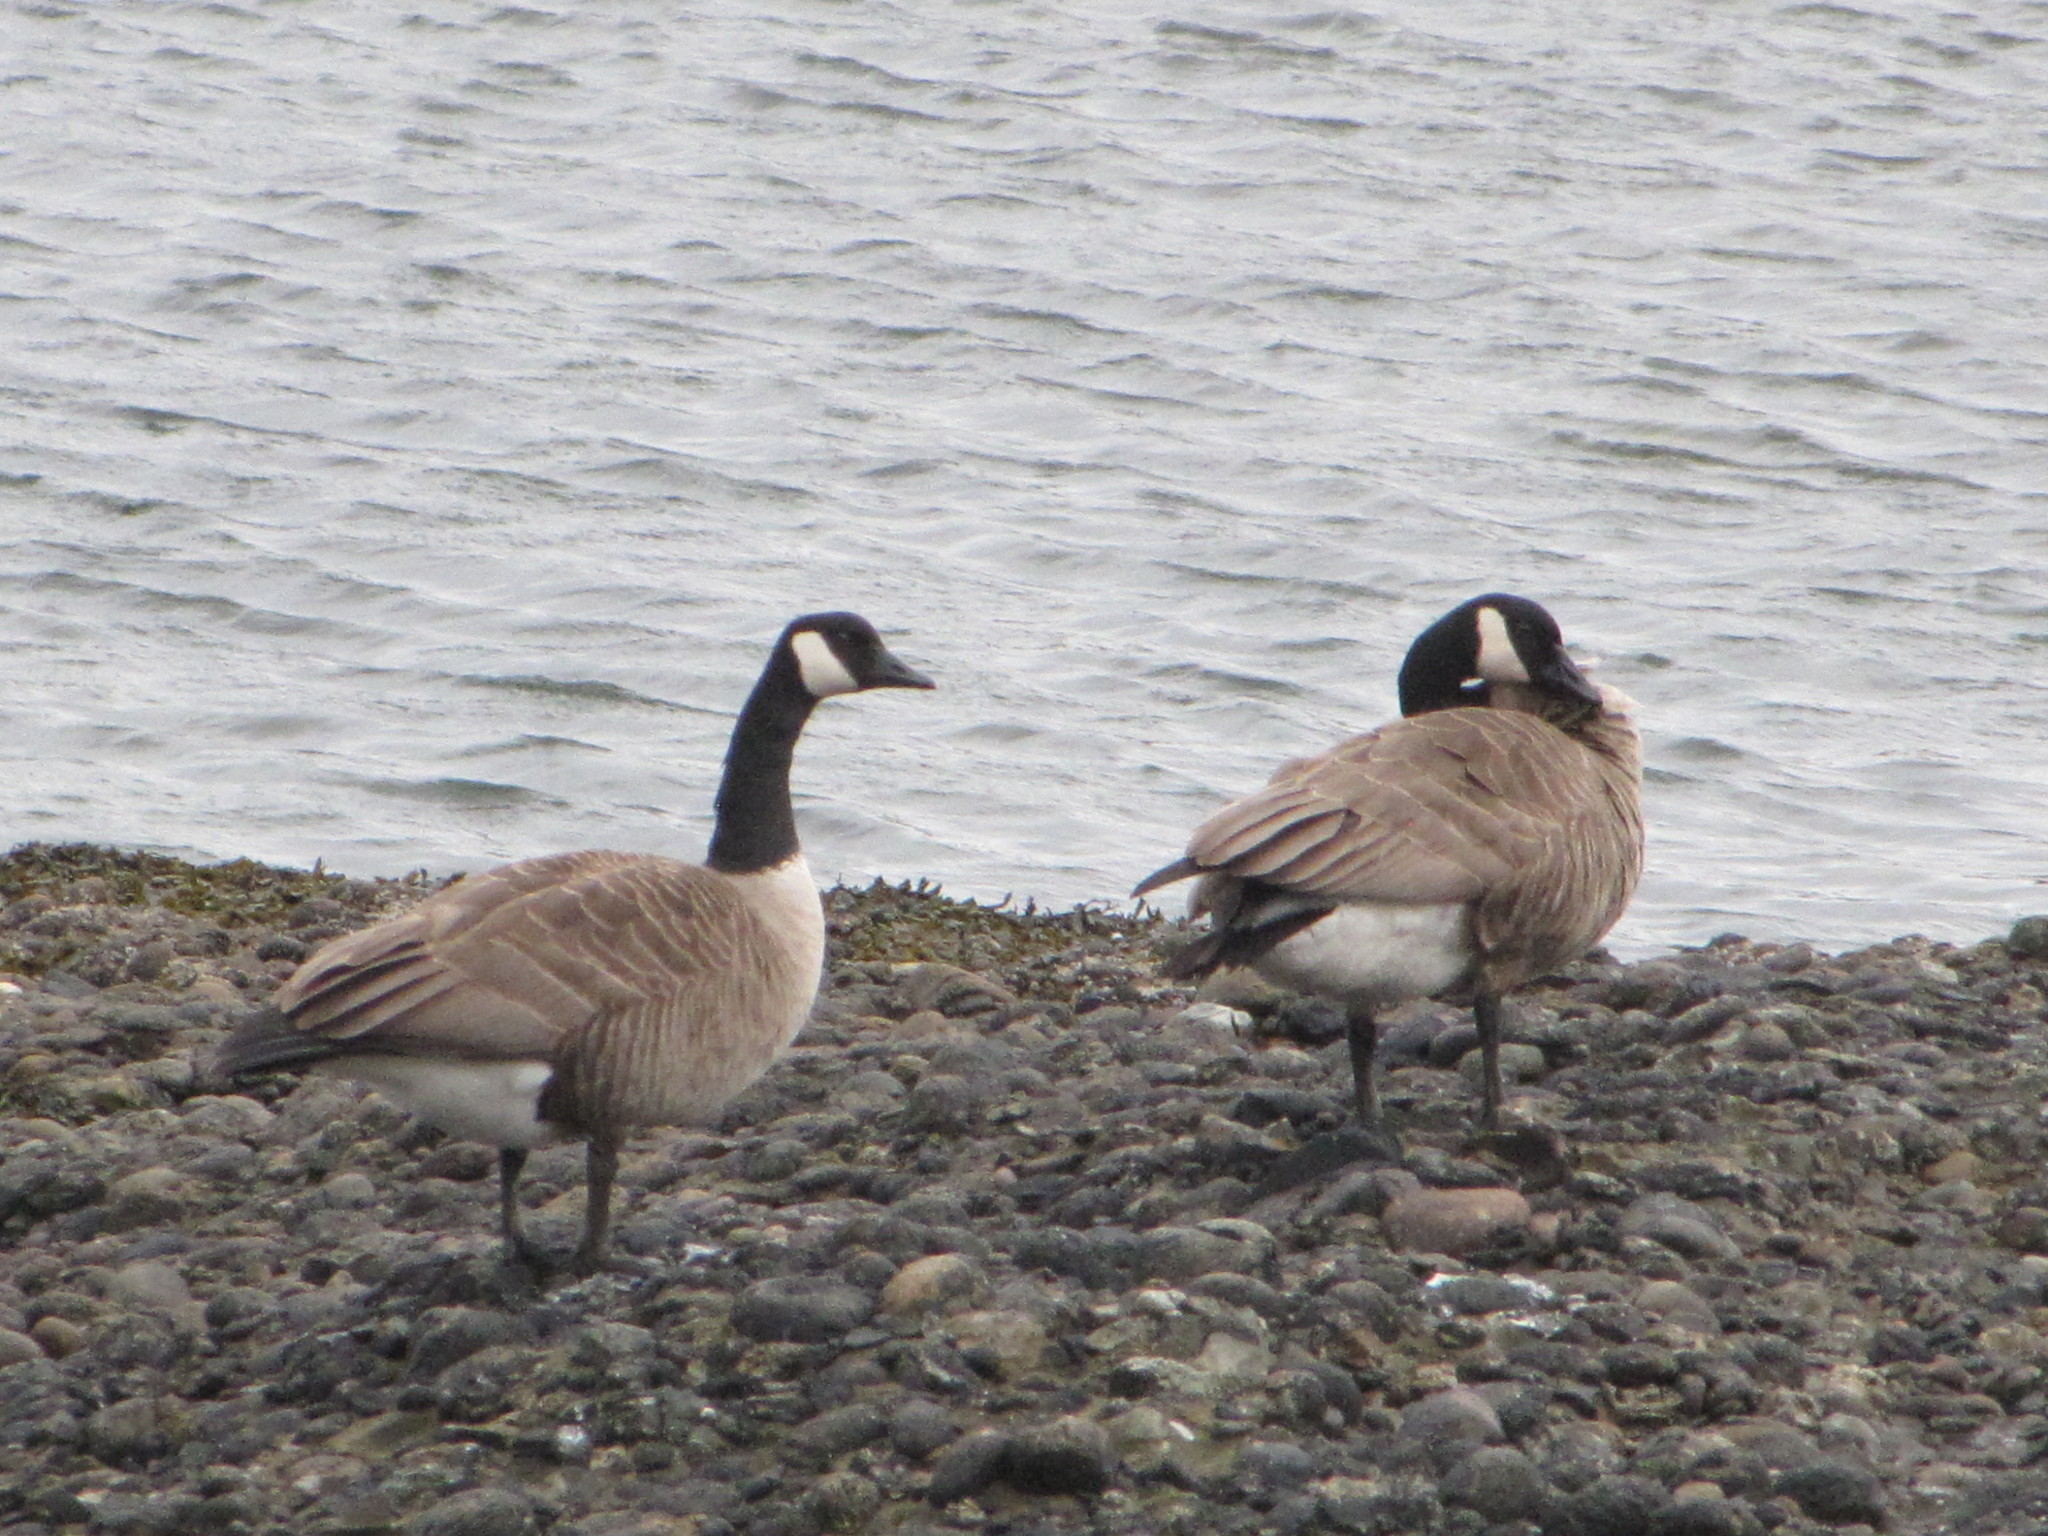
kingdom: Animalia
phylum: Chordata
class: Aves
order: Anseriformes
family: Anatidae
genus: Branta
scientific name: Branta canadensis
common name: Canada goose
